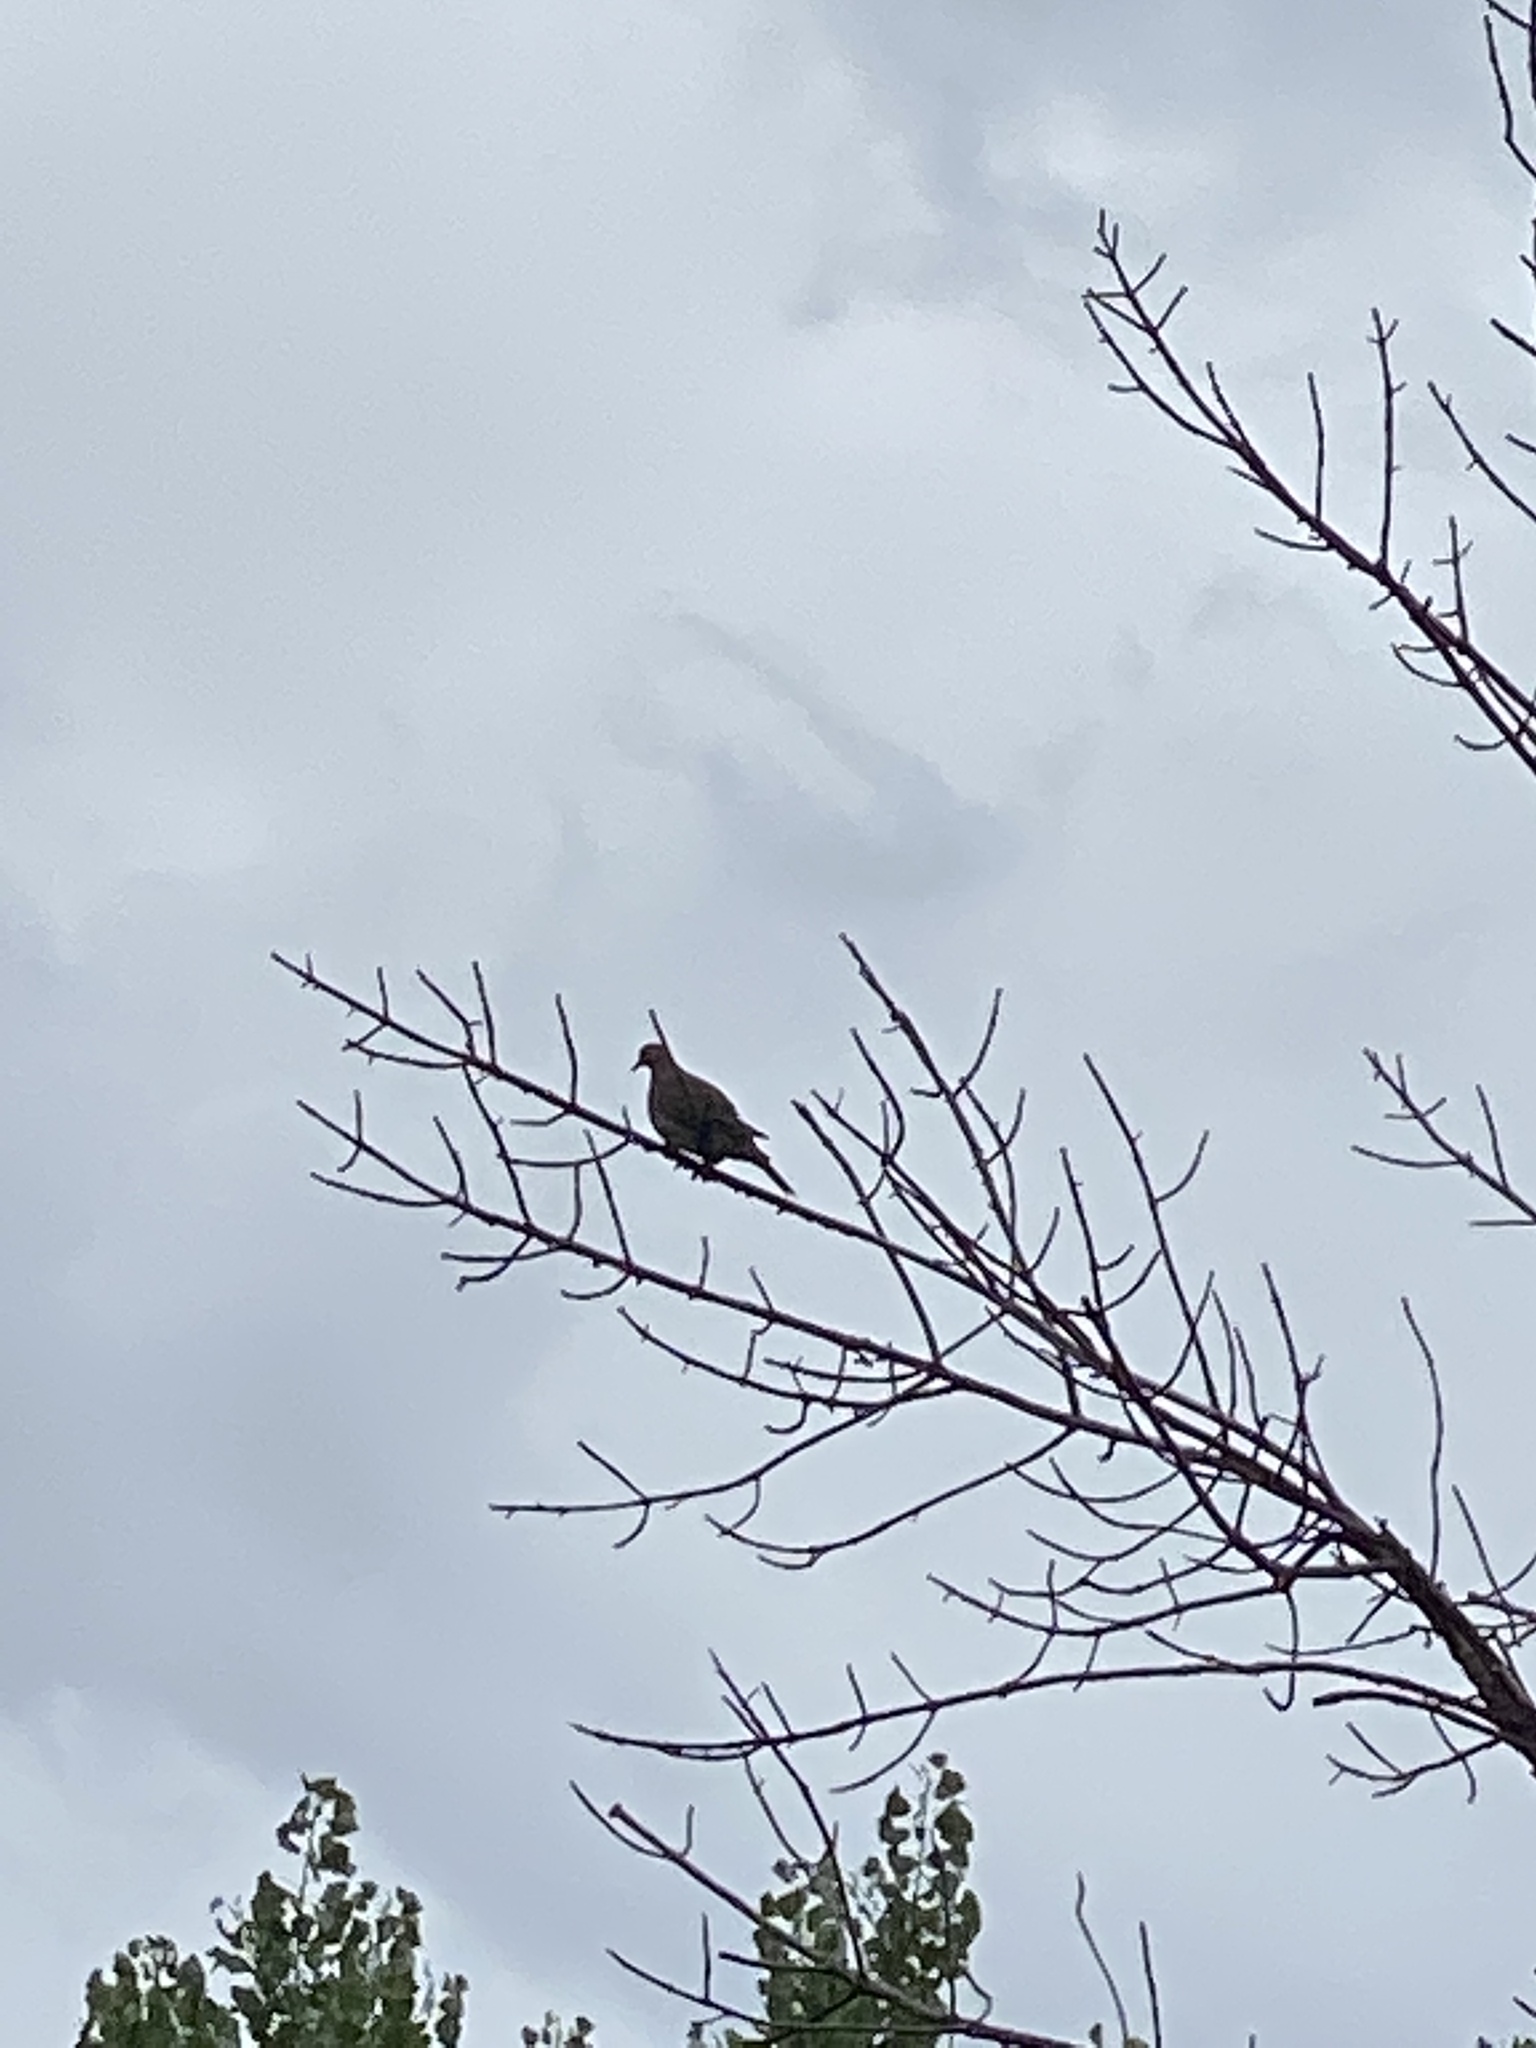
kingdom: Animalia
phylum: Chordata
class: Aves
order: Columbiformes
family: Columbidae
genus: Zenaida
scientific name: Zenaida macroura
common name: Mourning dove
